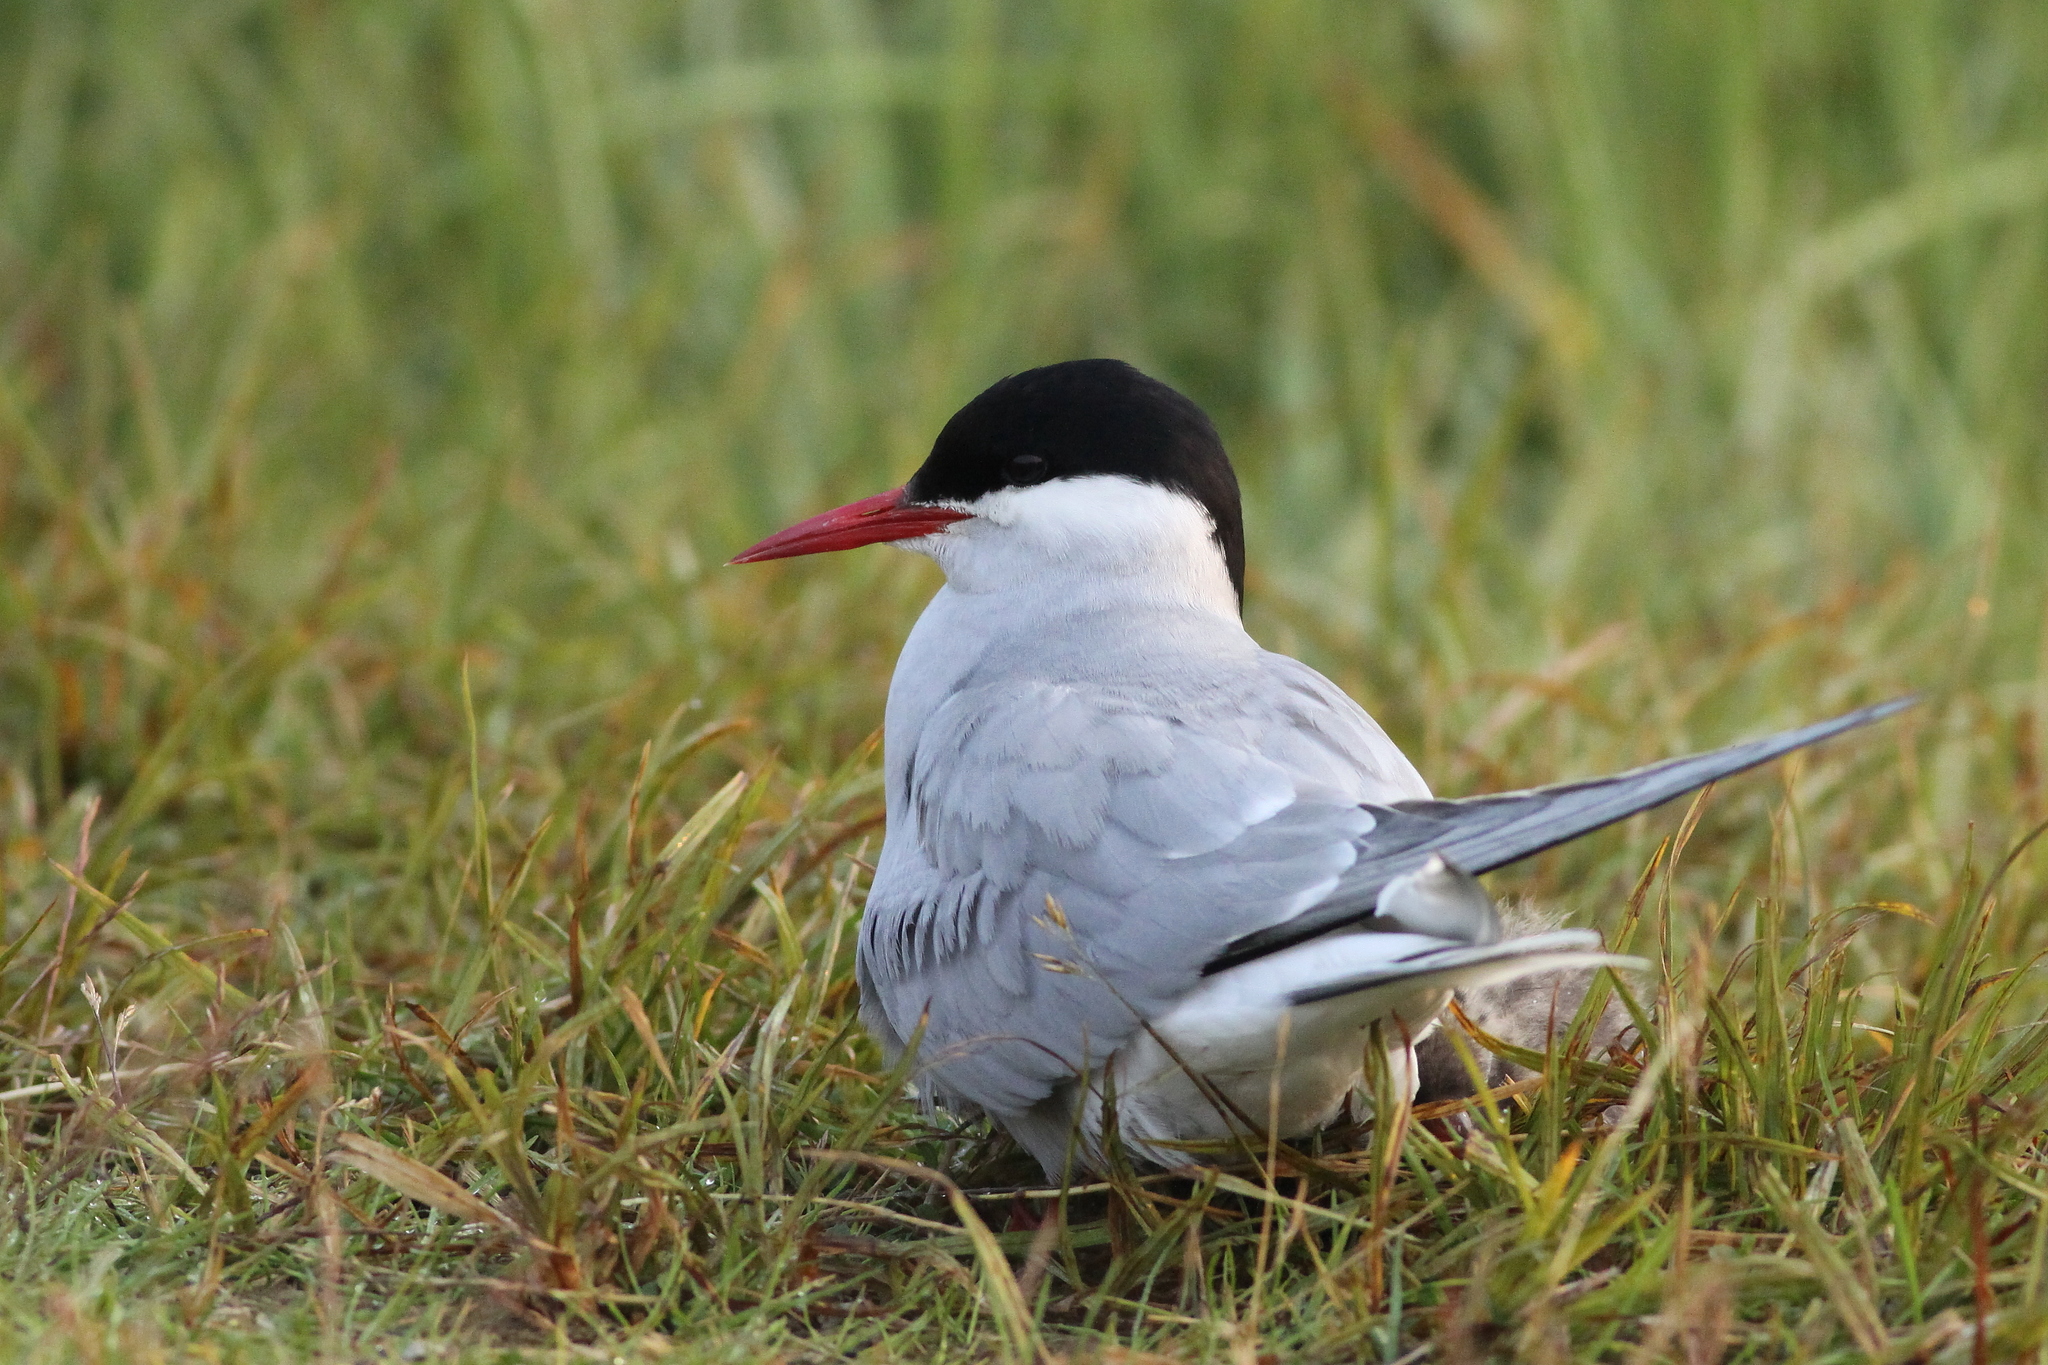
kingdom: Animalia
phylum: Chordata
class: Aves
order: Charadriiformes
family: Laridae
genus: Sterna
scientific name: Sterna paradisaea
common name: Arctic tern
